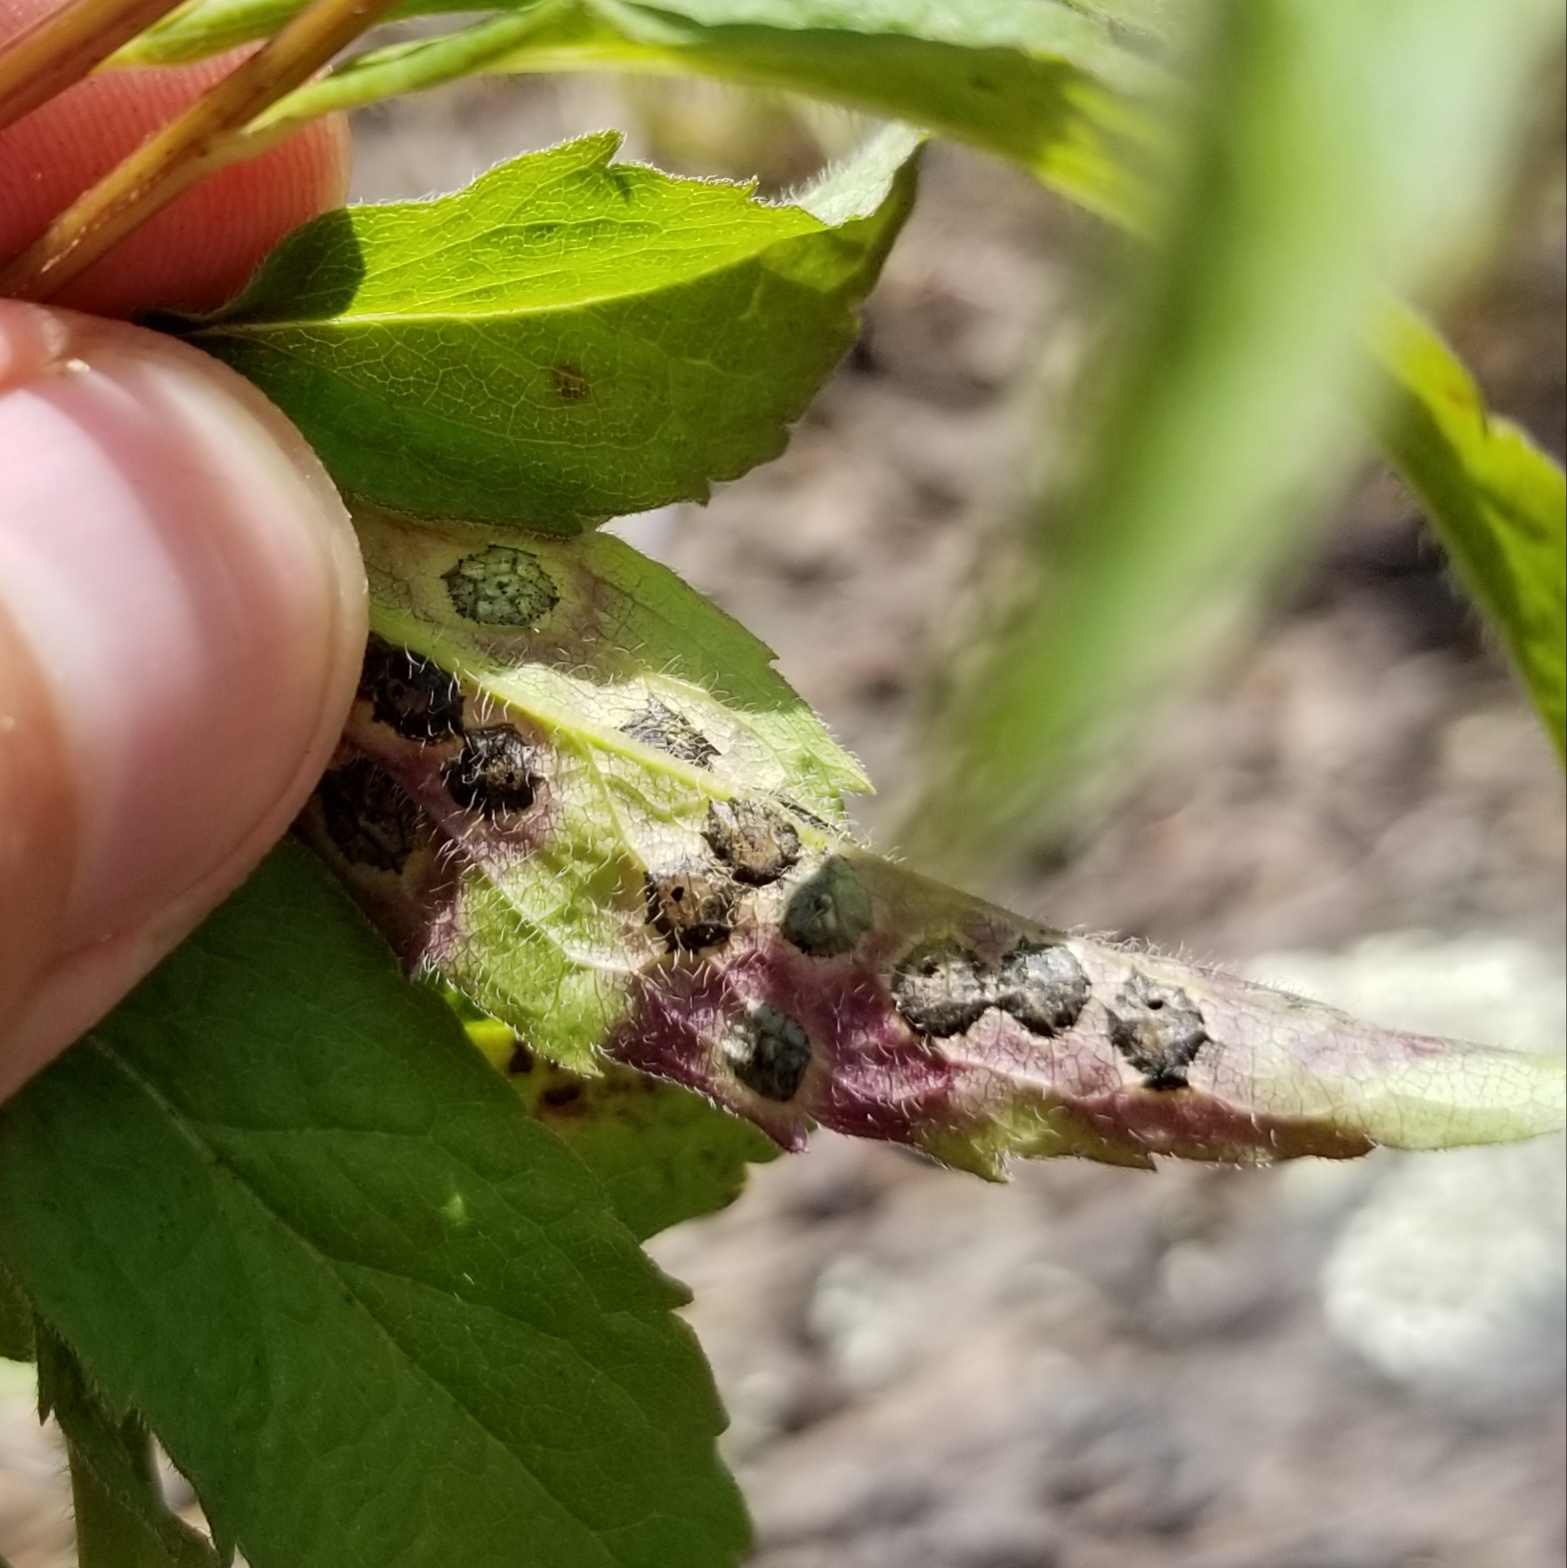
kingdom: Animalia
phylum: Arthropoda
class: Insecta
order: Diptera
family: Cecidomyiidae
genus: Asteromyia
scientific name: Asteromyia carbonifera
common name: Carbonifera goldenrod gall midge
